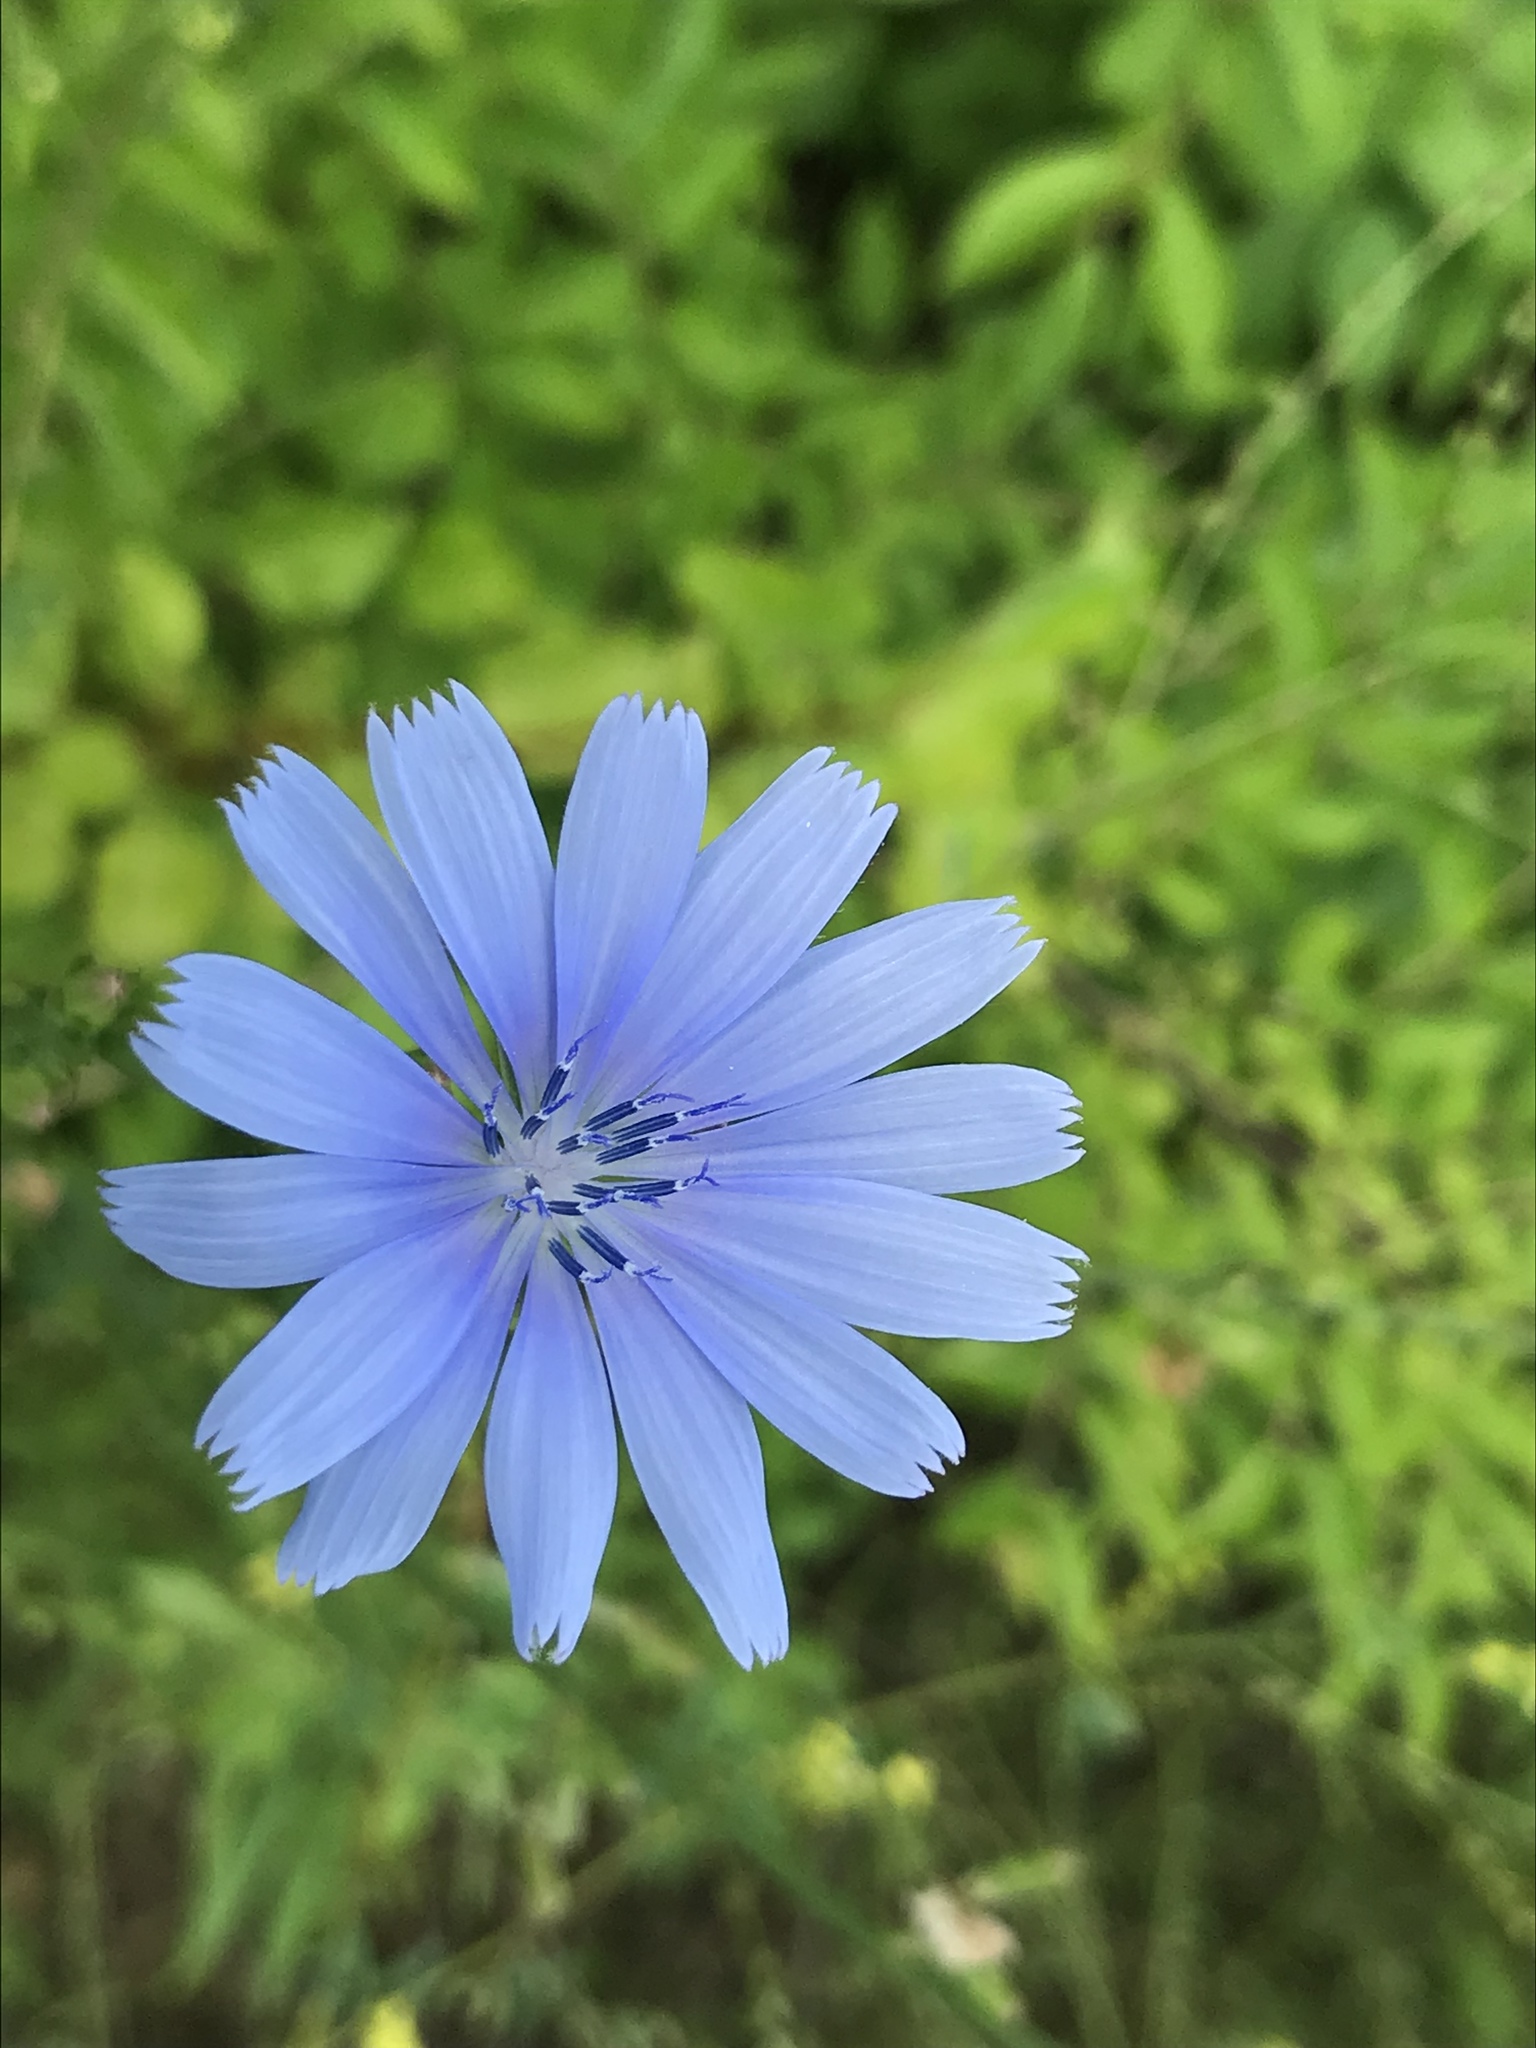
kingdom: Plantae
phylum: Tracheophyta
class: Magnoliopsida
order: Asterales
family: Asteraceae
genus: Cichorium
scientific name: Cichorium intybus
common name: Chicory
